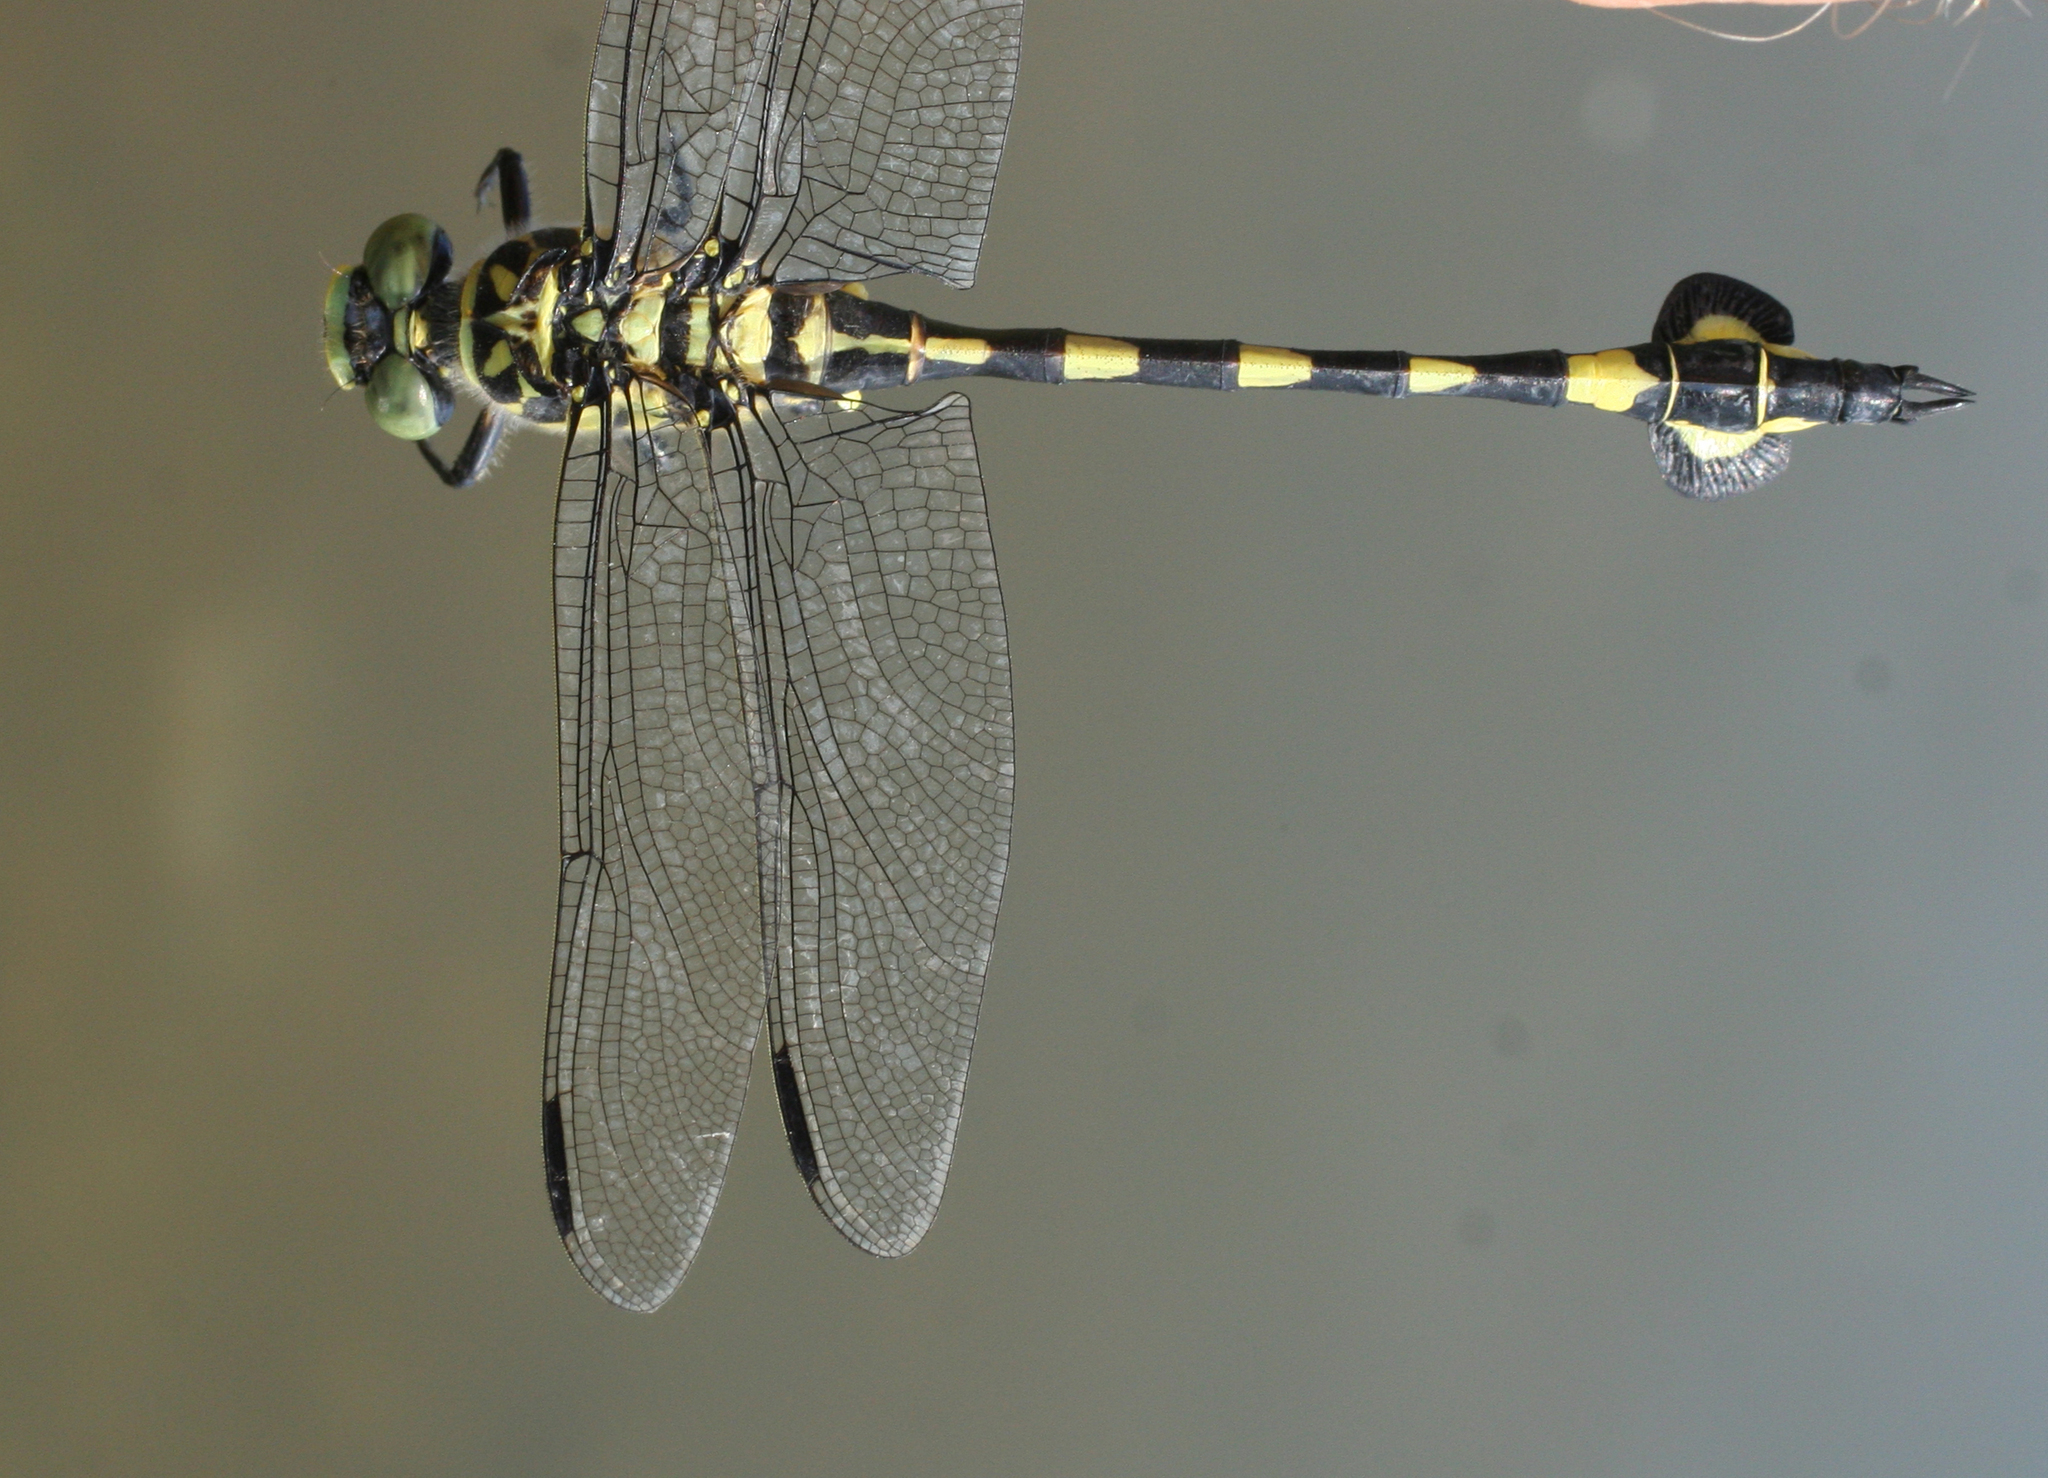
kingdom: Animalia
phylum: Arthropoda
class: Insecta
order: Odonata
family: Gomphidae
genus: Sinictinogomphus
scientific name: Sinictinogomphus clavatus
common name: Golden flangetail
